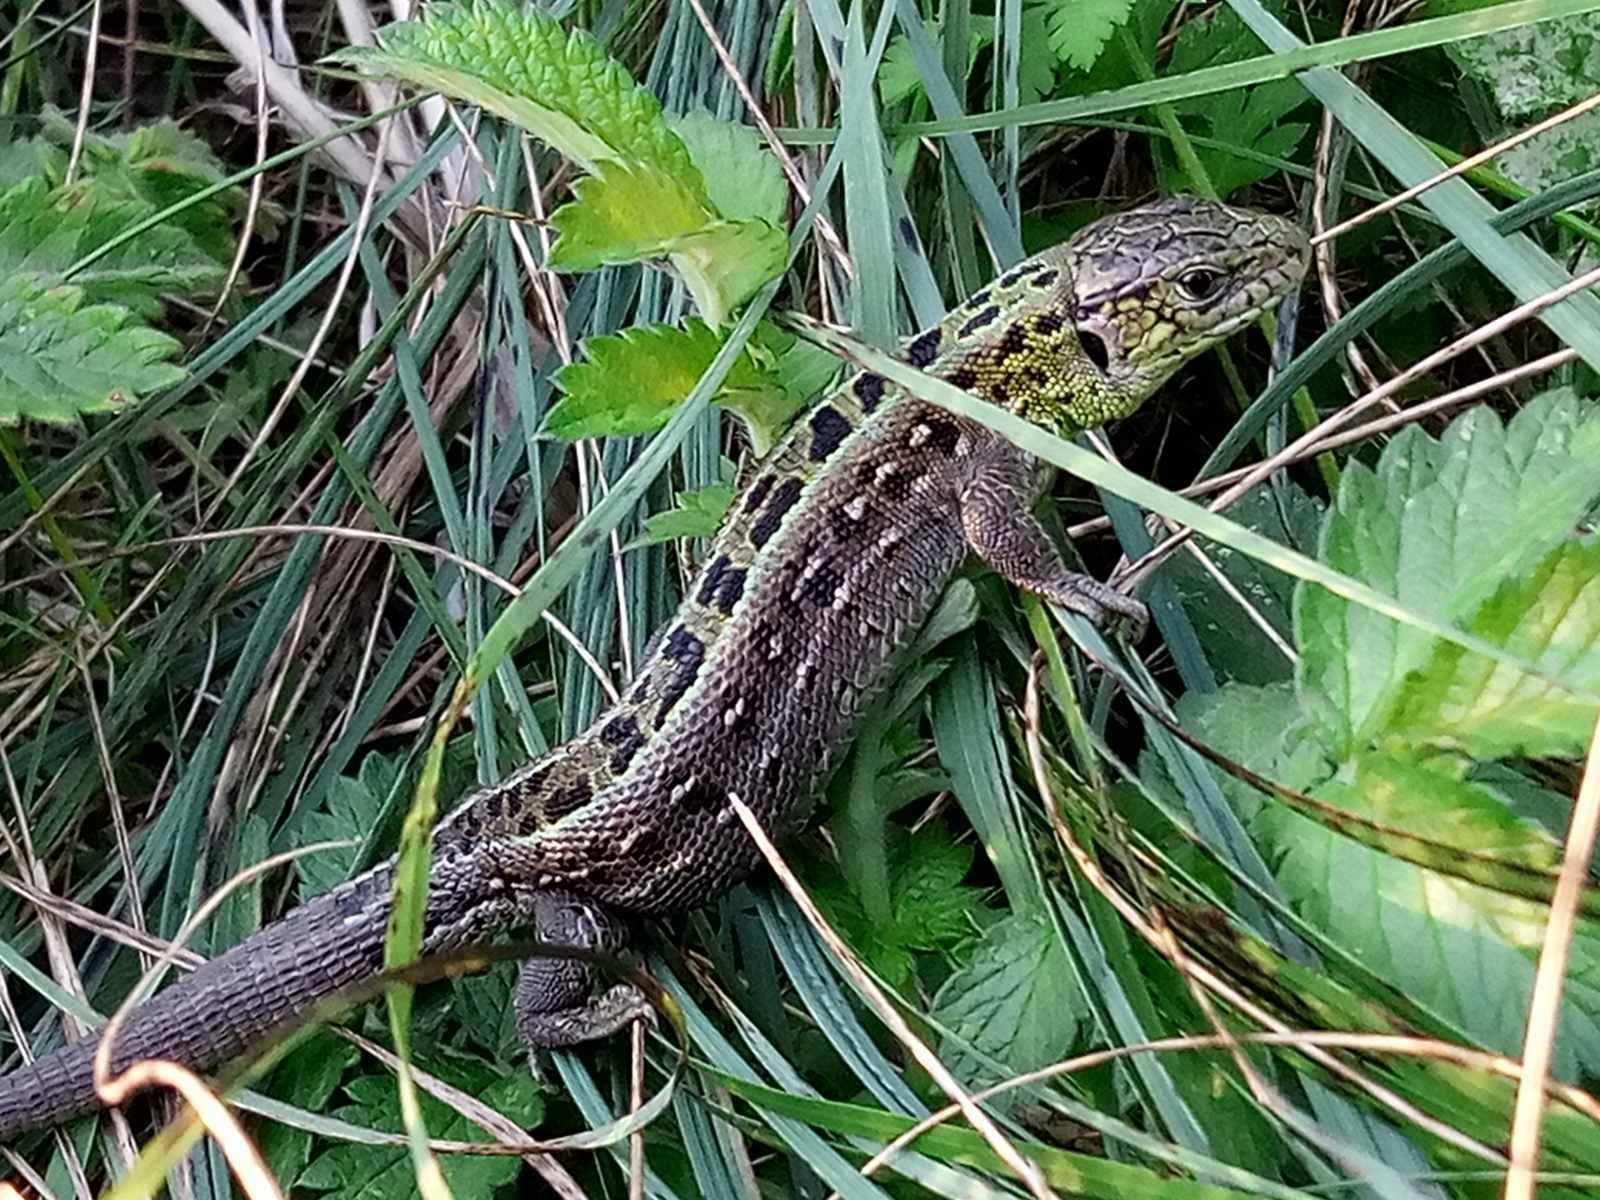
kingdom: Animalia
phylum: Chordata
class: Squamata
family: Lacertidae
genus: Lacerta
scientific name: Lacerta agilis
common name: Sand lizard
